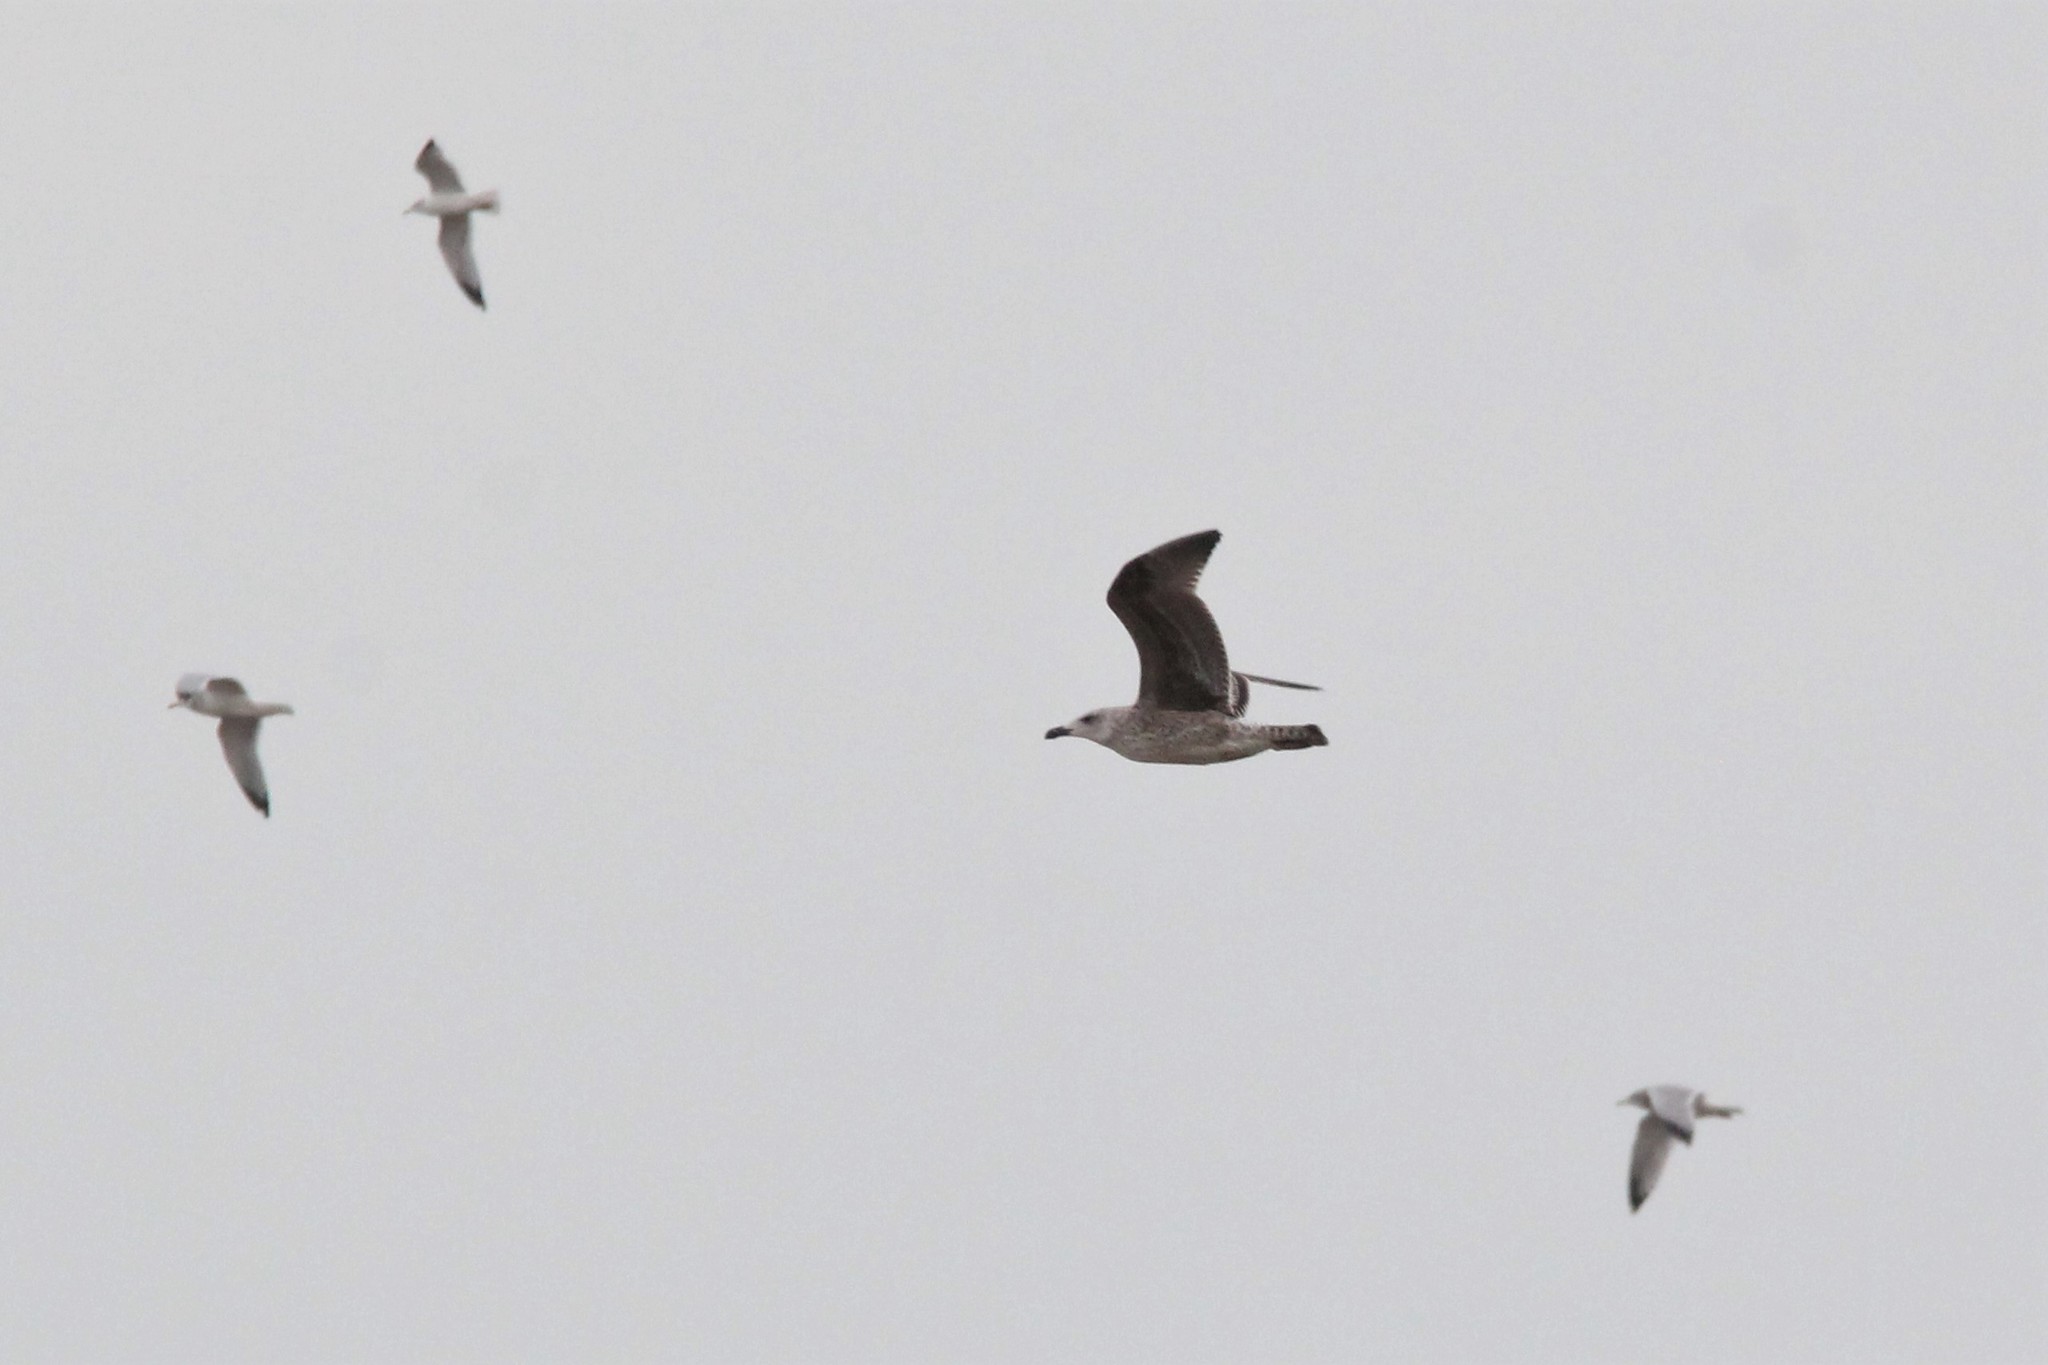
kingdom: Animalia
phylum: Chordata
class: Aves
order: Charadriiformes
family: Laridae
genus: Larus
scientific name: Larus marinus
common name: Great black-backed gull
